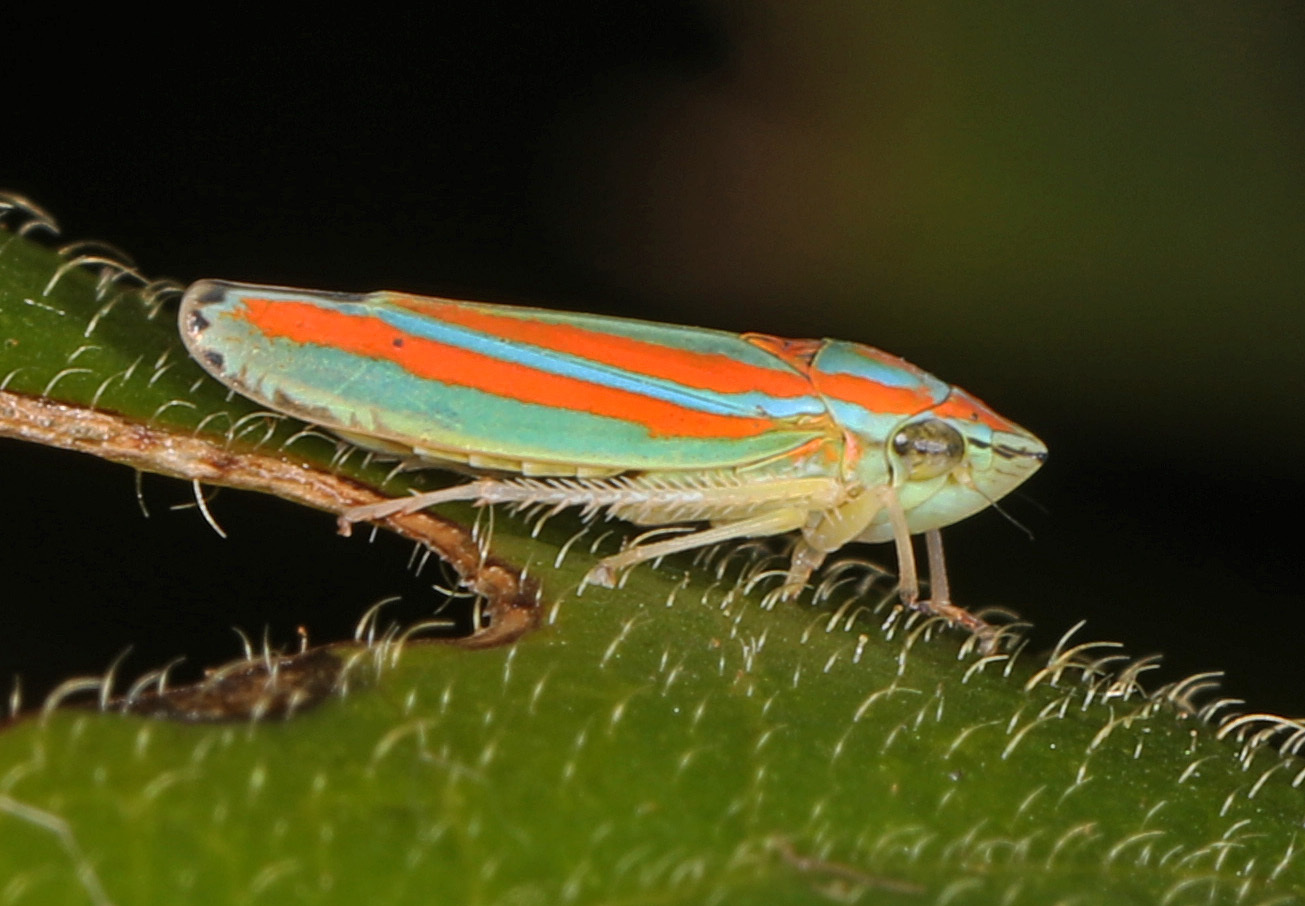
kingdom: Animalia
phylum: Arthropoda
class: Insecta
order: Hemiptera
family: Cicadellidae
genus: Graphocephala
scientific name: Graphocephala versuta
